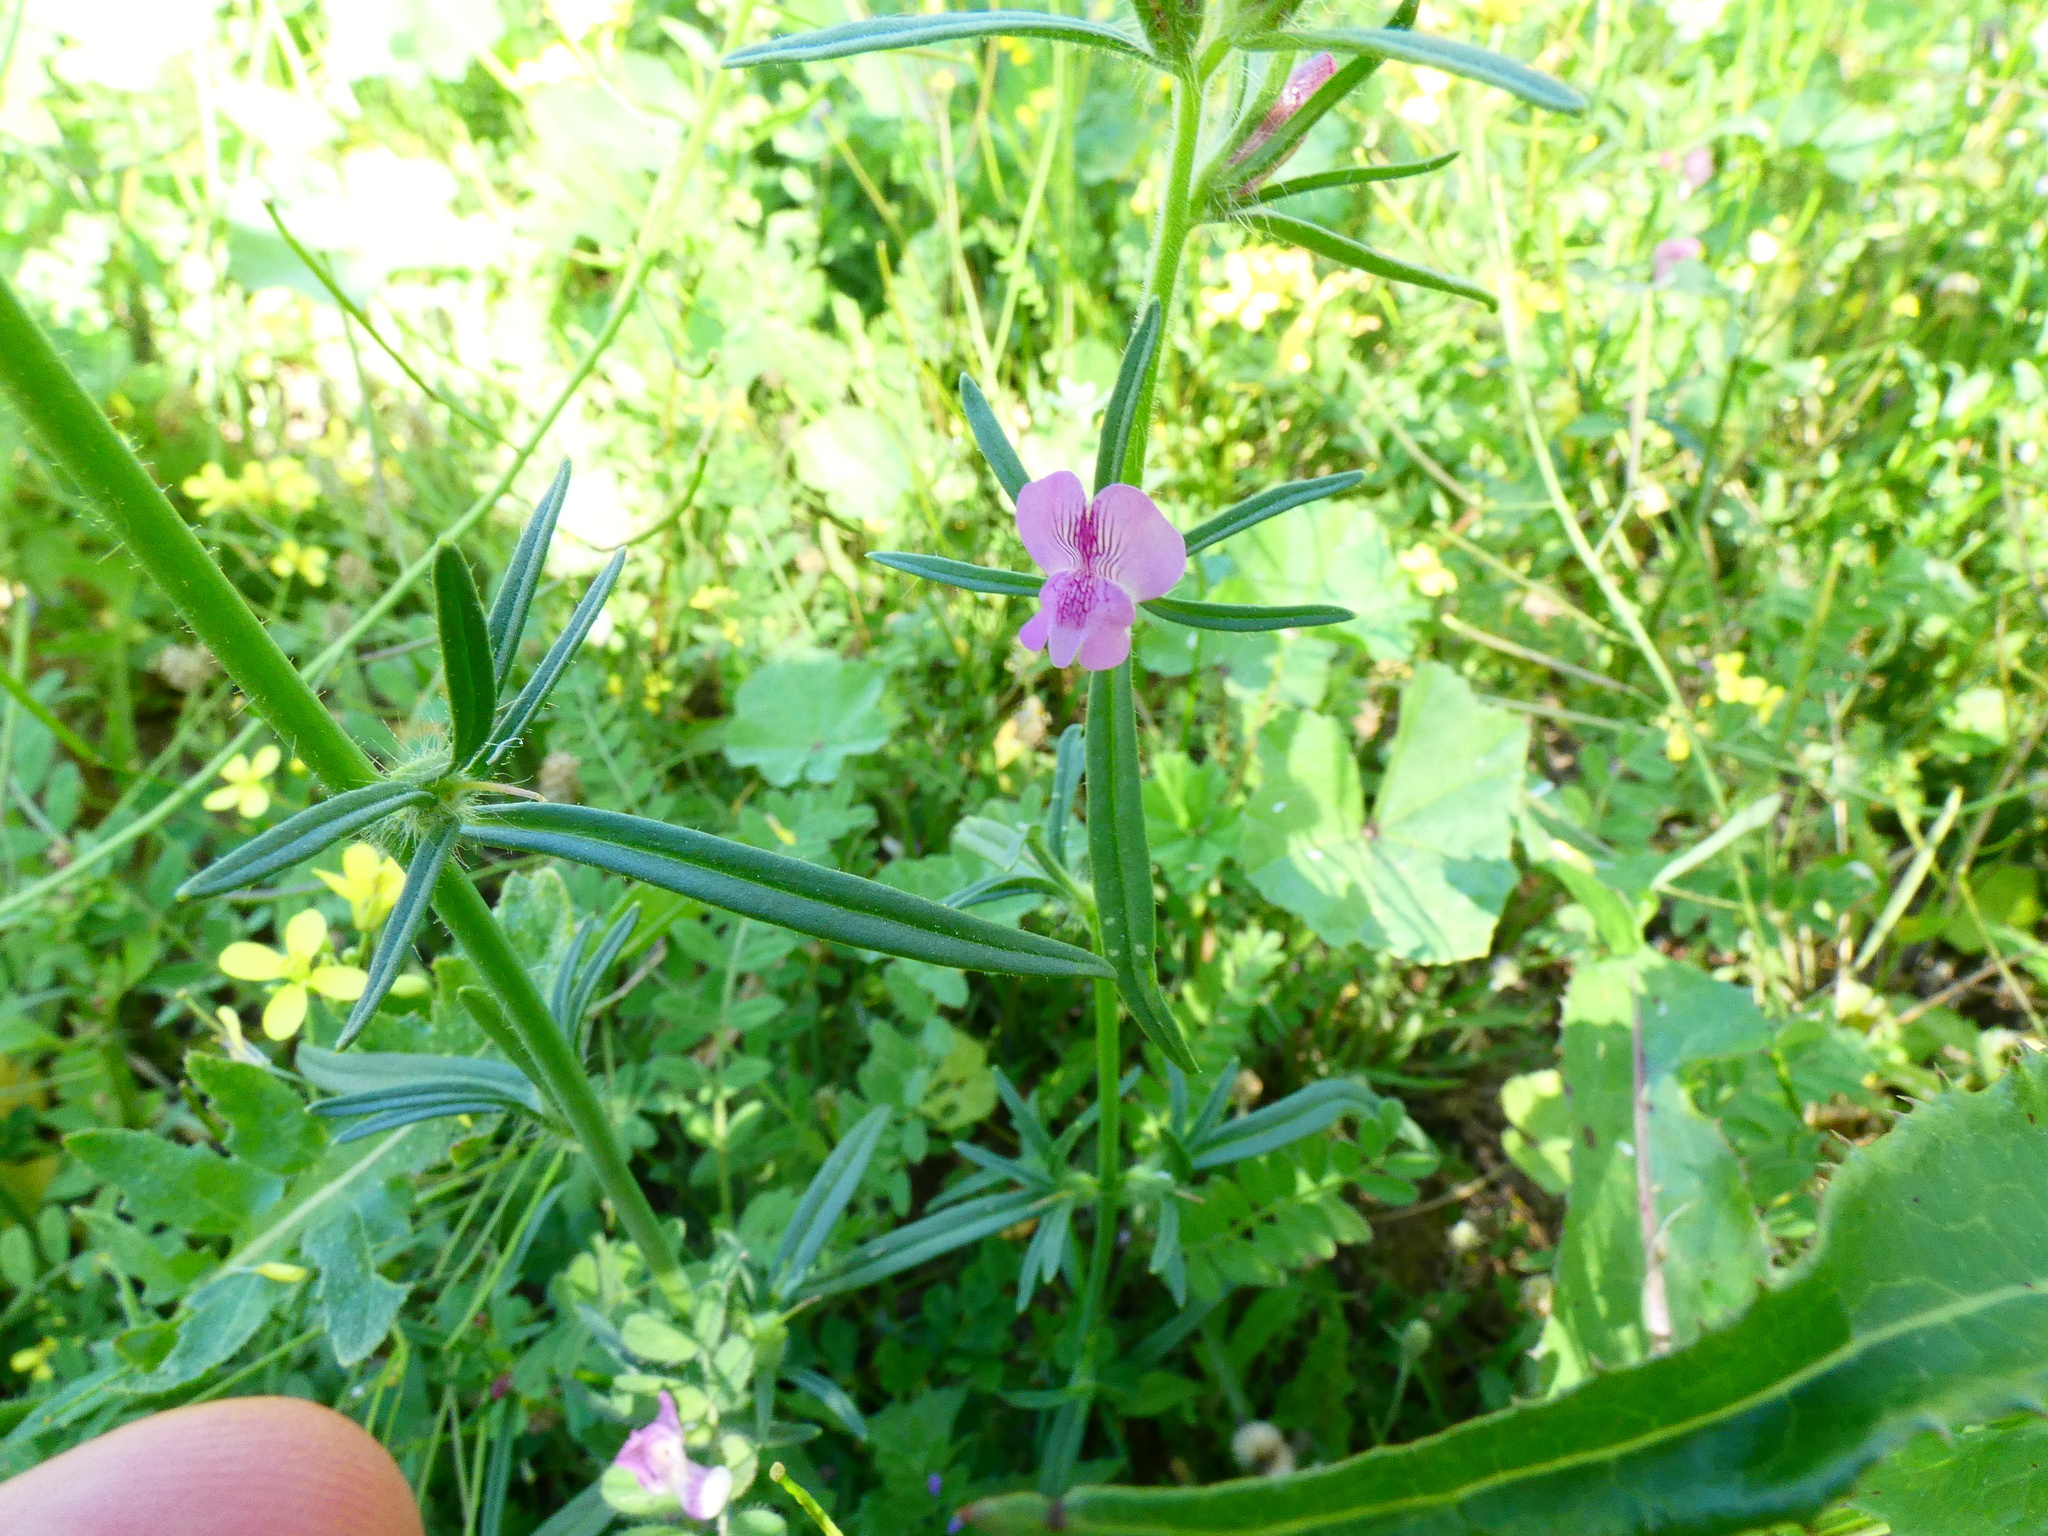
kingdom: Plantae
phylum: Tracheophyta
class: Magnoliopsida
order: Lamiales
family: Plantaginaceae
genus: Misopates
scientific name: Misopates orontium
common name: Weasel's-snout
